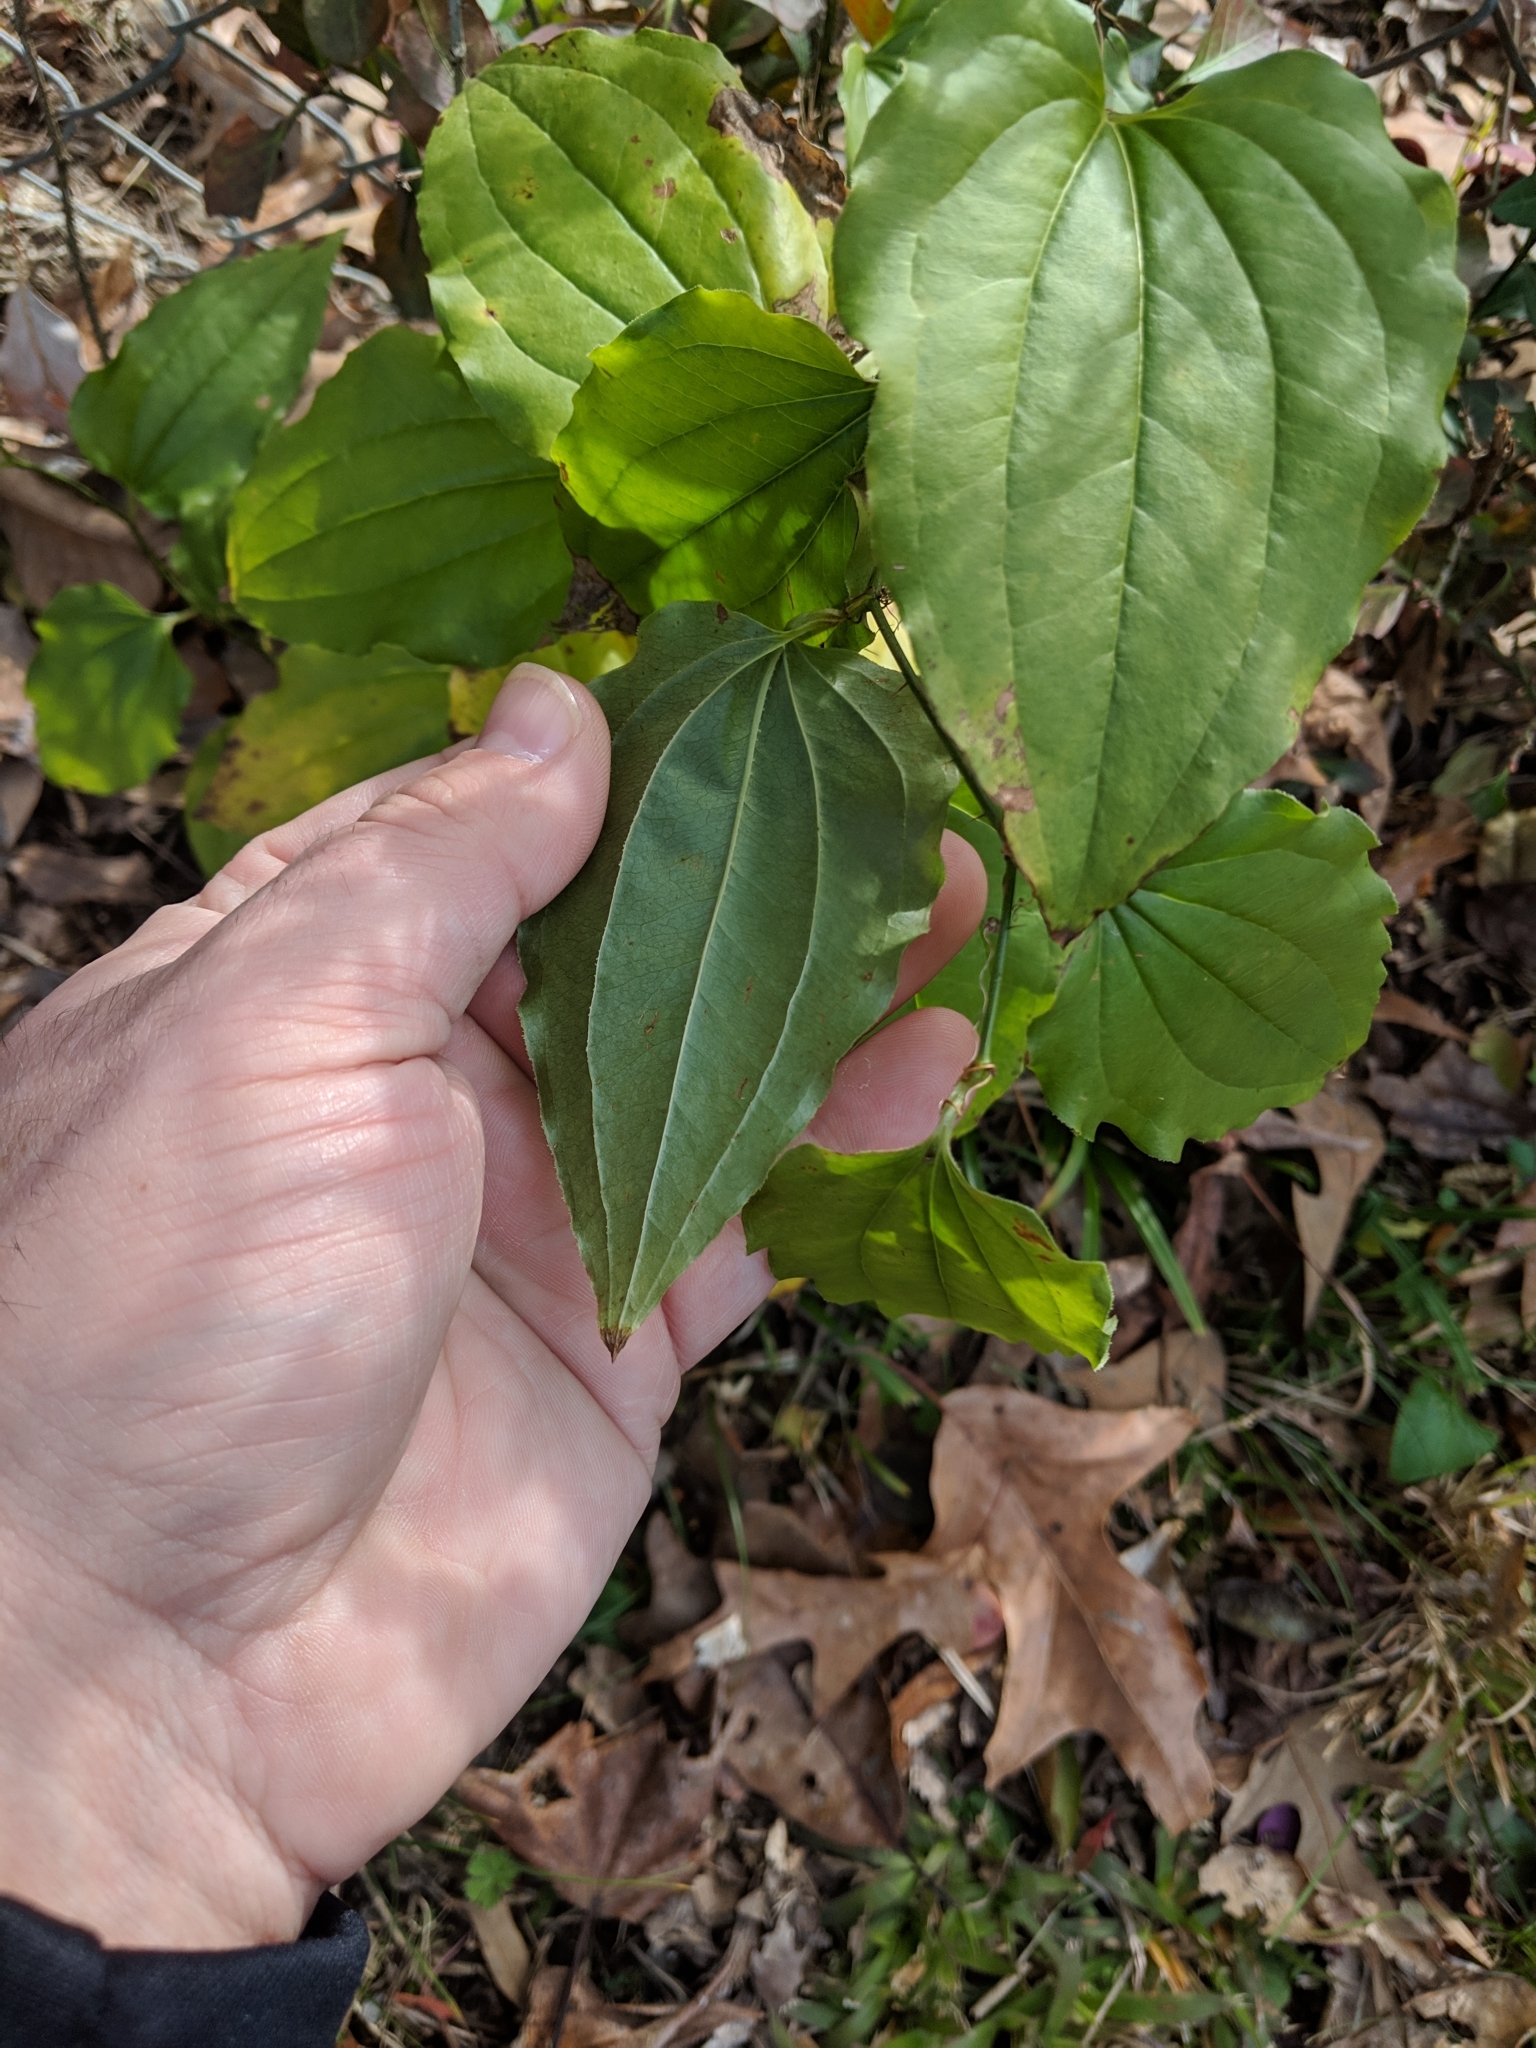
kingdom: Plantae
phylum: Tracheophyta
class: Liliopsida
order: Liliales
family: Smilacaceae
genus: Smilax
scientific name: Smilax tamnoides
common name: Hellfetter
